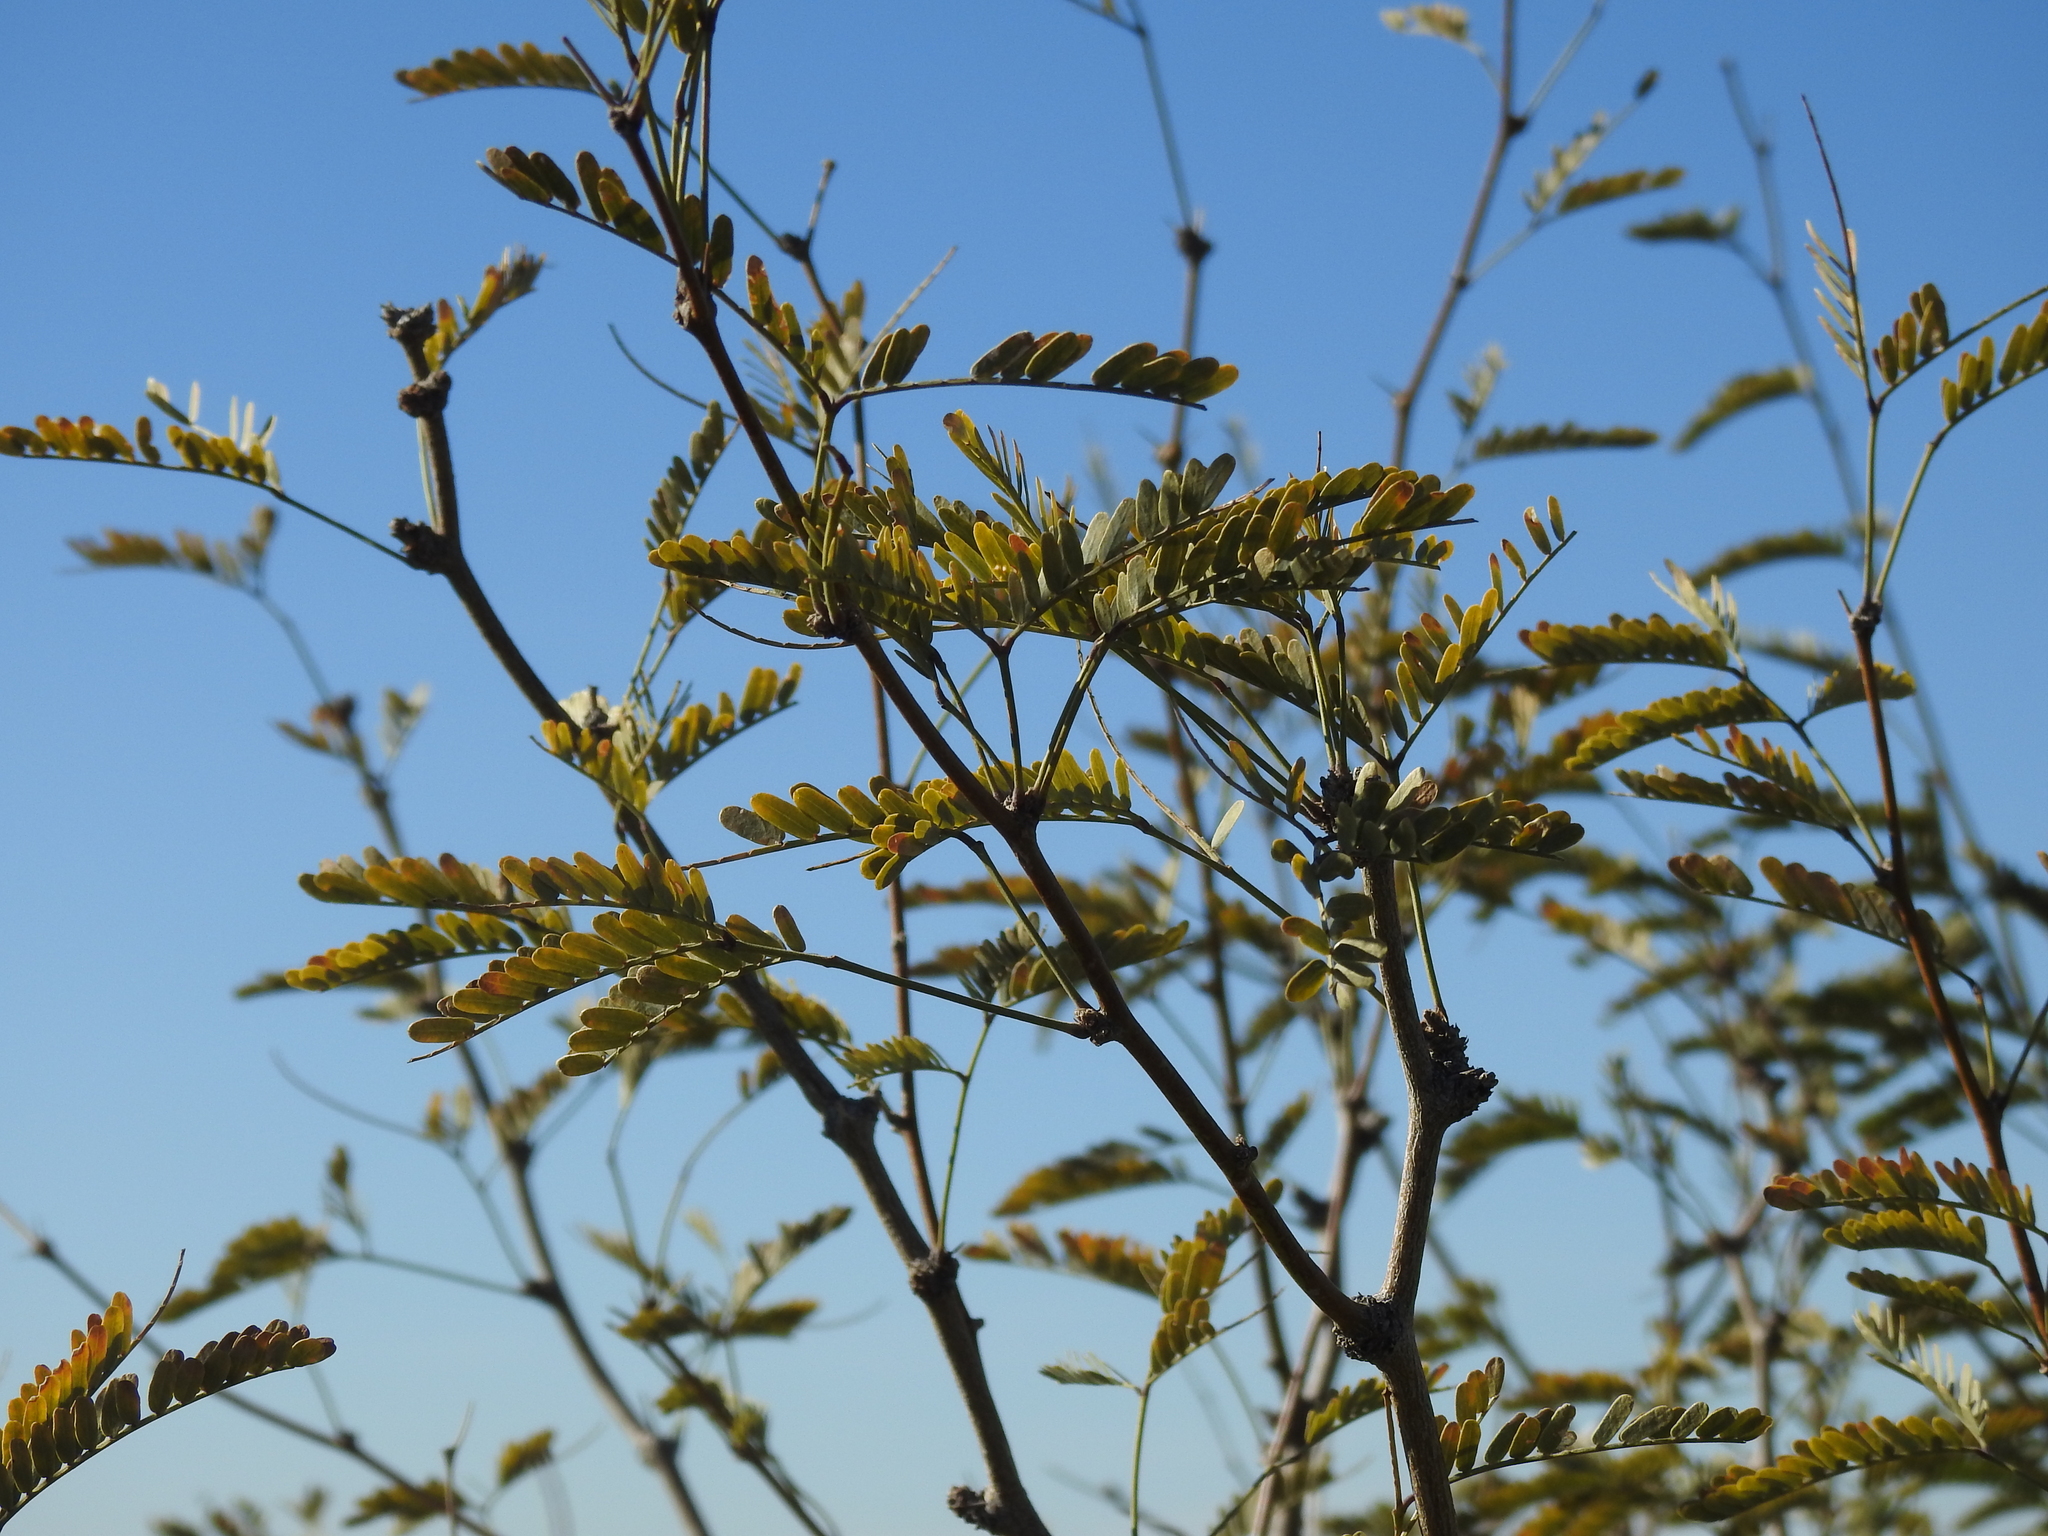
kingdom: Plantae
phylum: Tracheophyta
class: Magnoliopsida
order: Fabales
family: Fabaceae
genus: Prosopis
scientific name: Prosopis velutina
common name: Velvet mesquite
